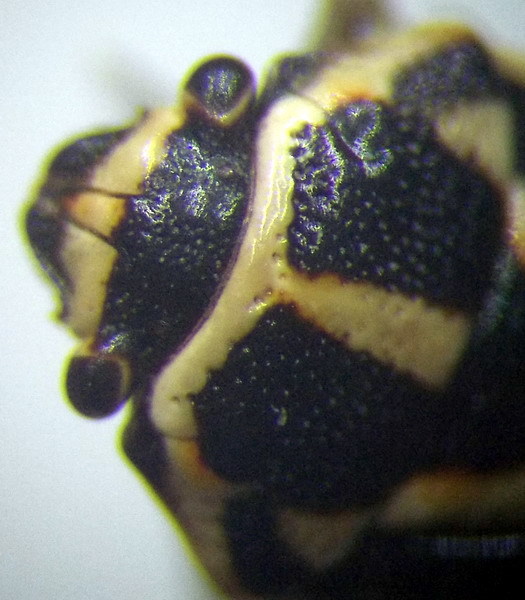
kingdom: Animalia
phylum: Arthropoda
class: Insecta
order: Hemiptera
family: Pentatomidae
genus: Bagrada
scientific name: Bagrada stolida
